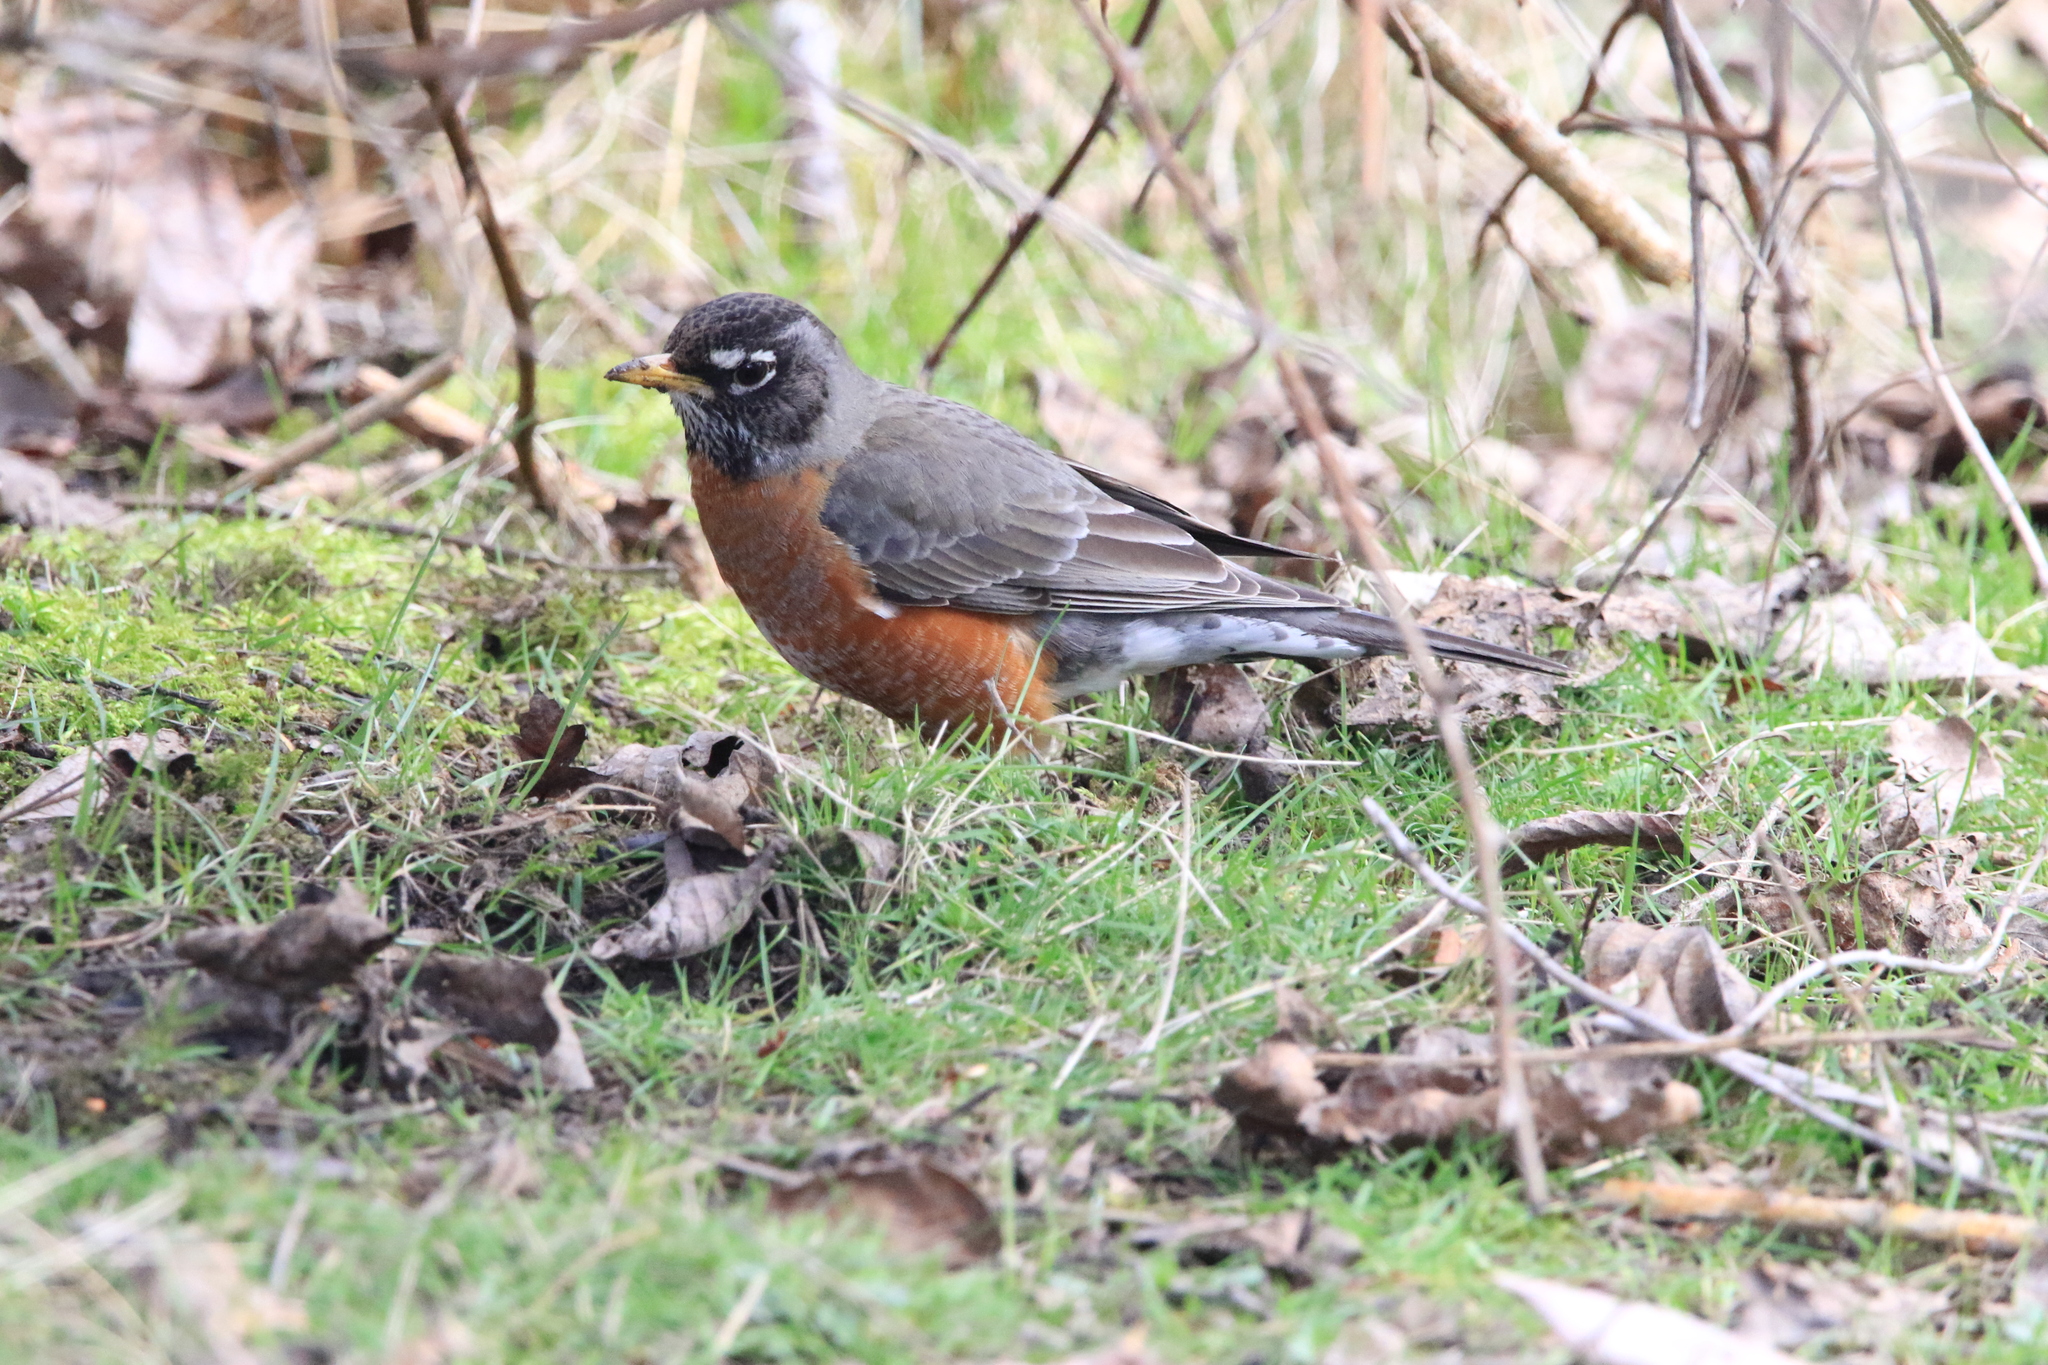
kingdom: Animalia
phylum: Chordata
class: Aves
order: Passeriformes
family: Turdidae
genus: Turdus
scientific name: Turdus migratorius
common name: American robin
